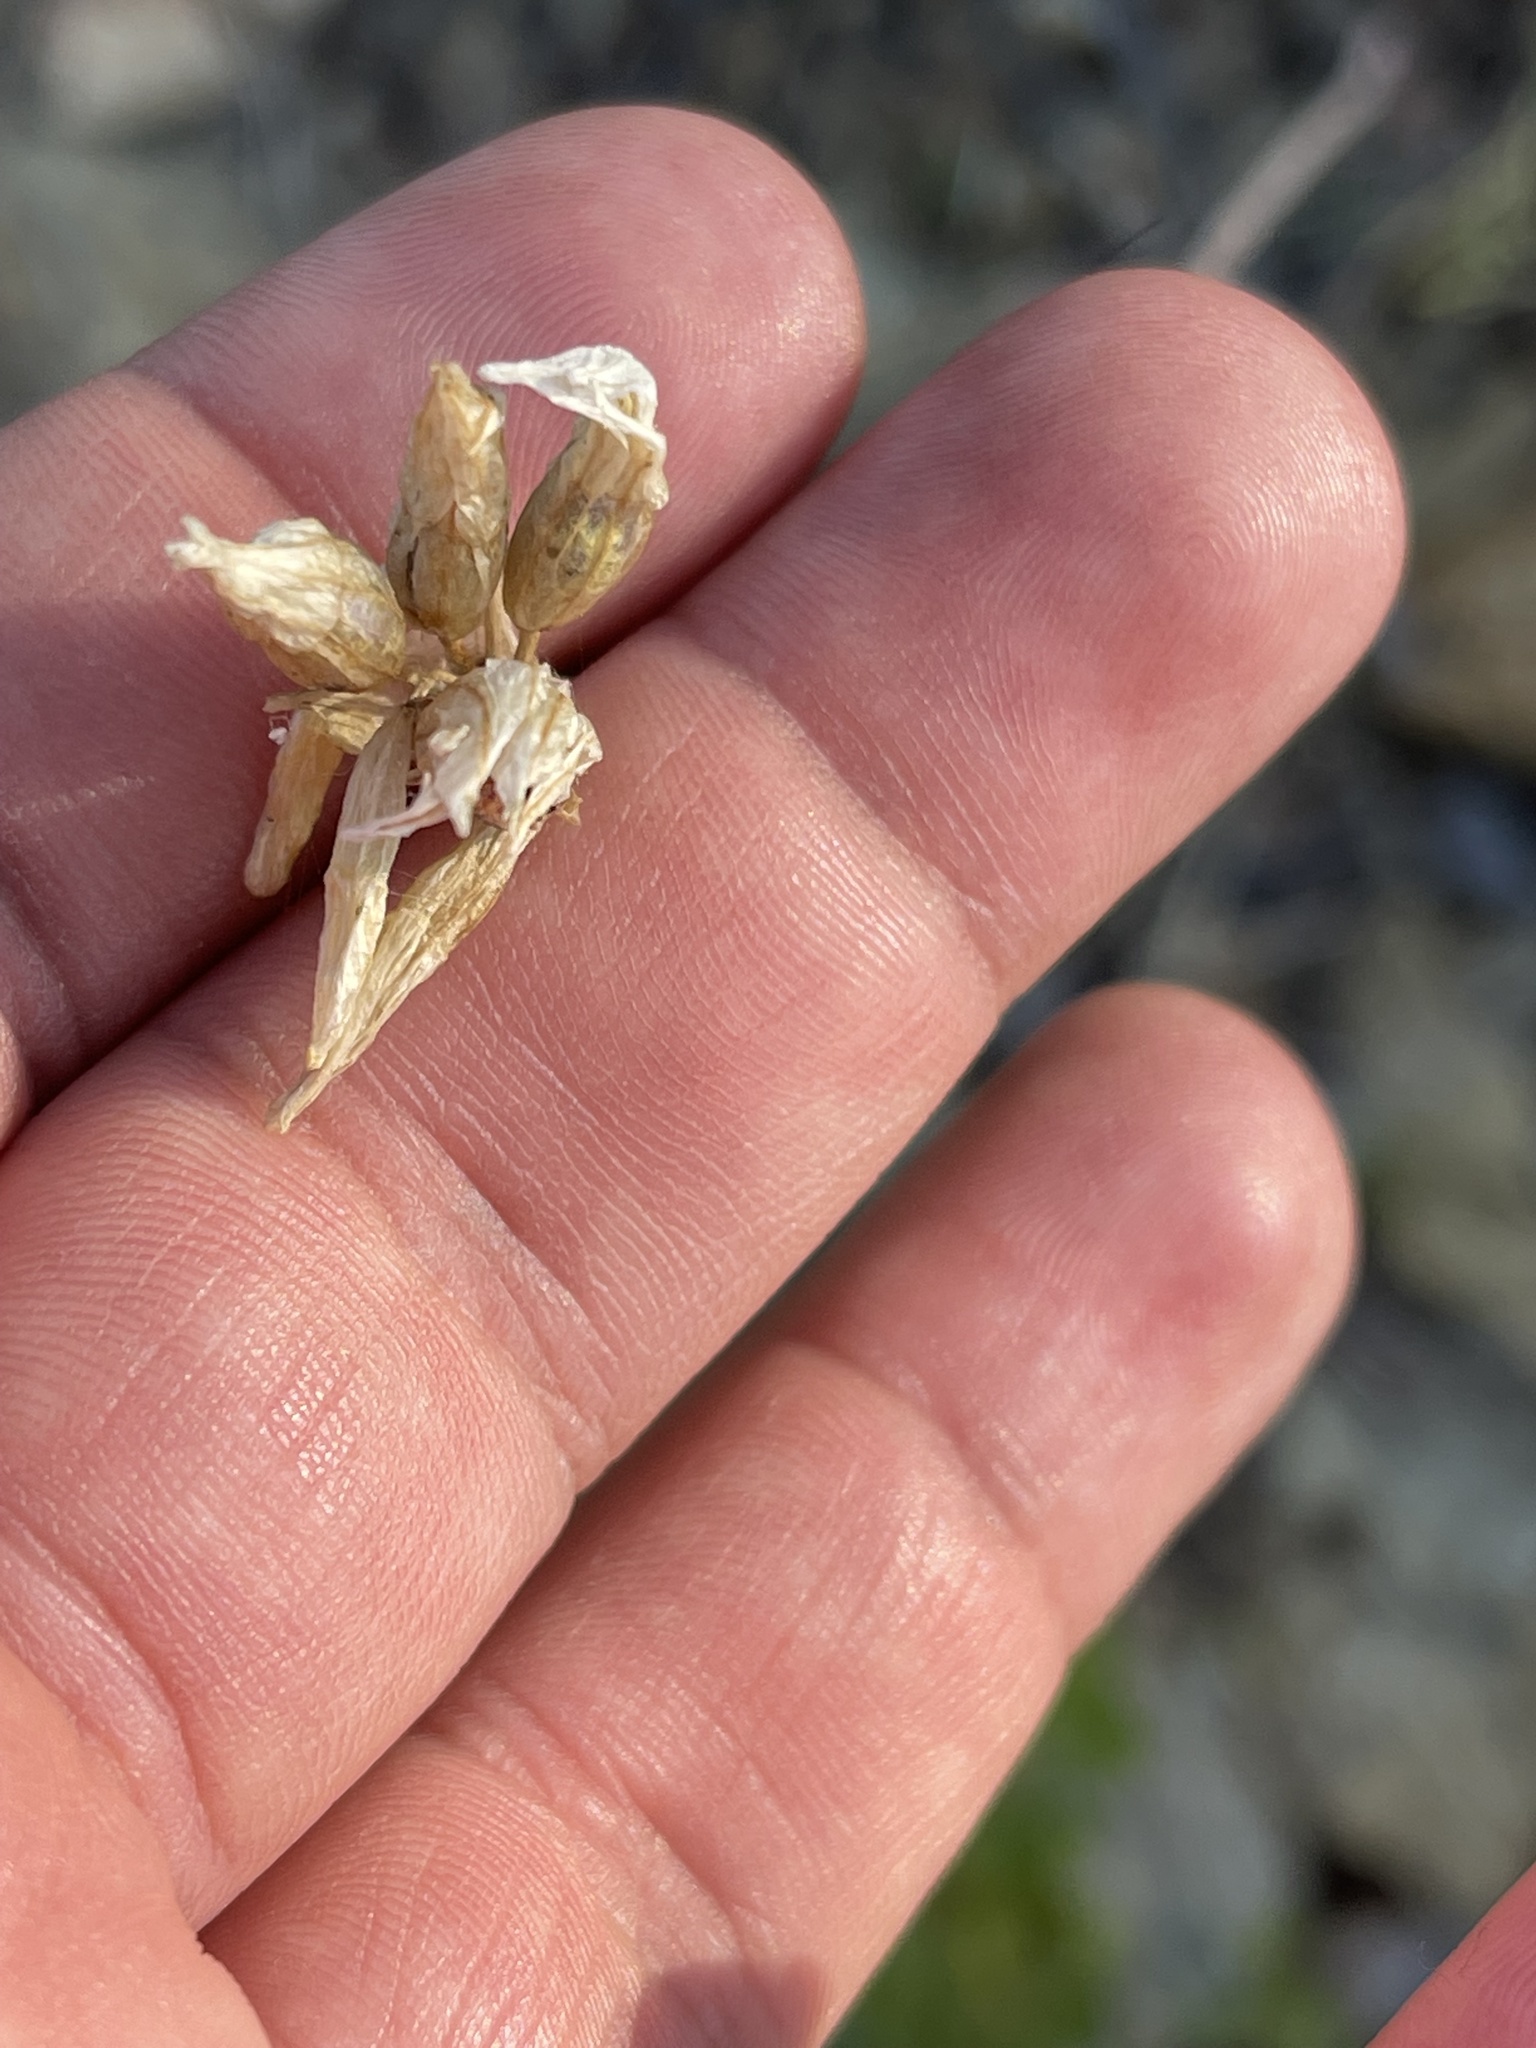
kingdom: Plantae
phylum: Tracheophyta
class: Liliopsida
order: Asparagales
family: Asparagaceae
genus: Dipterostemon
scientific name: Dipterostemon capitatus
